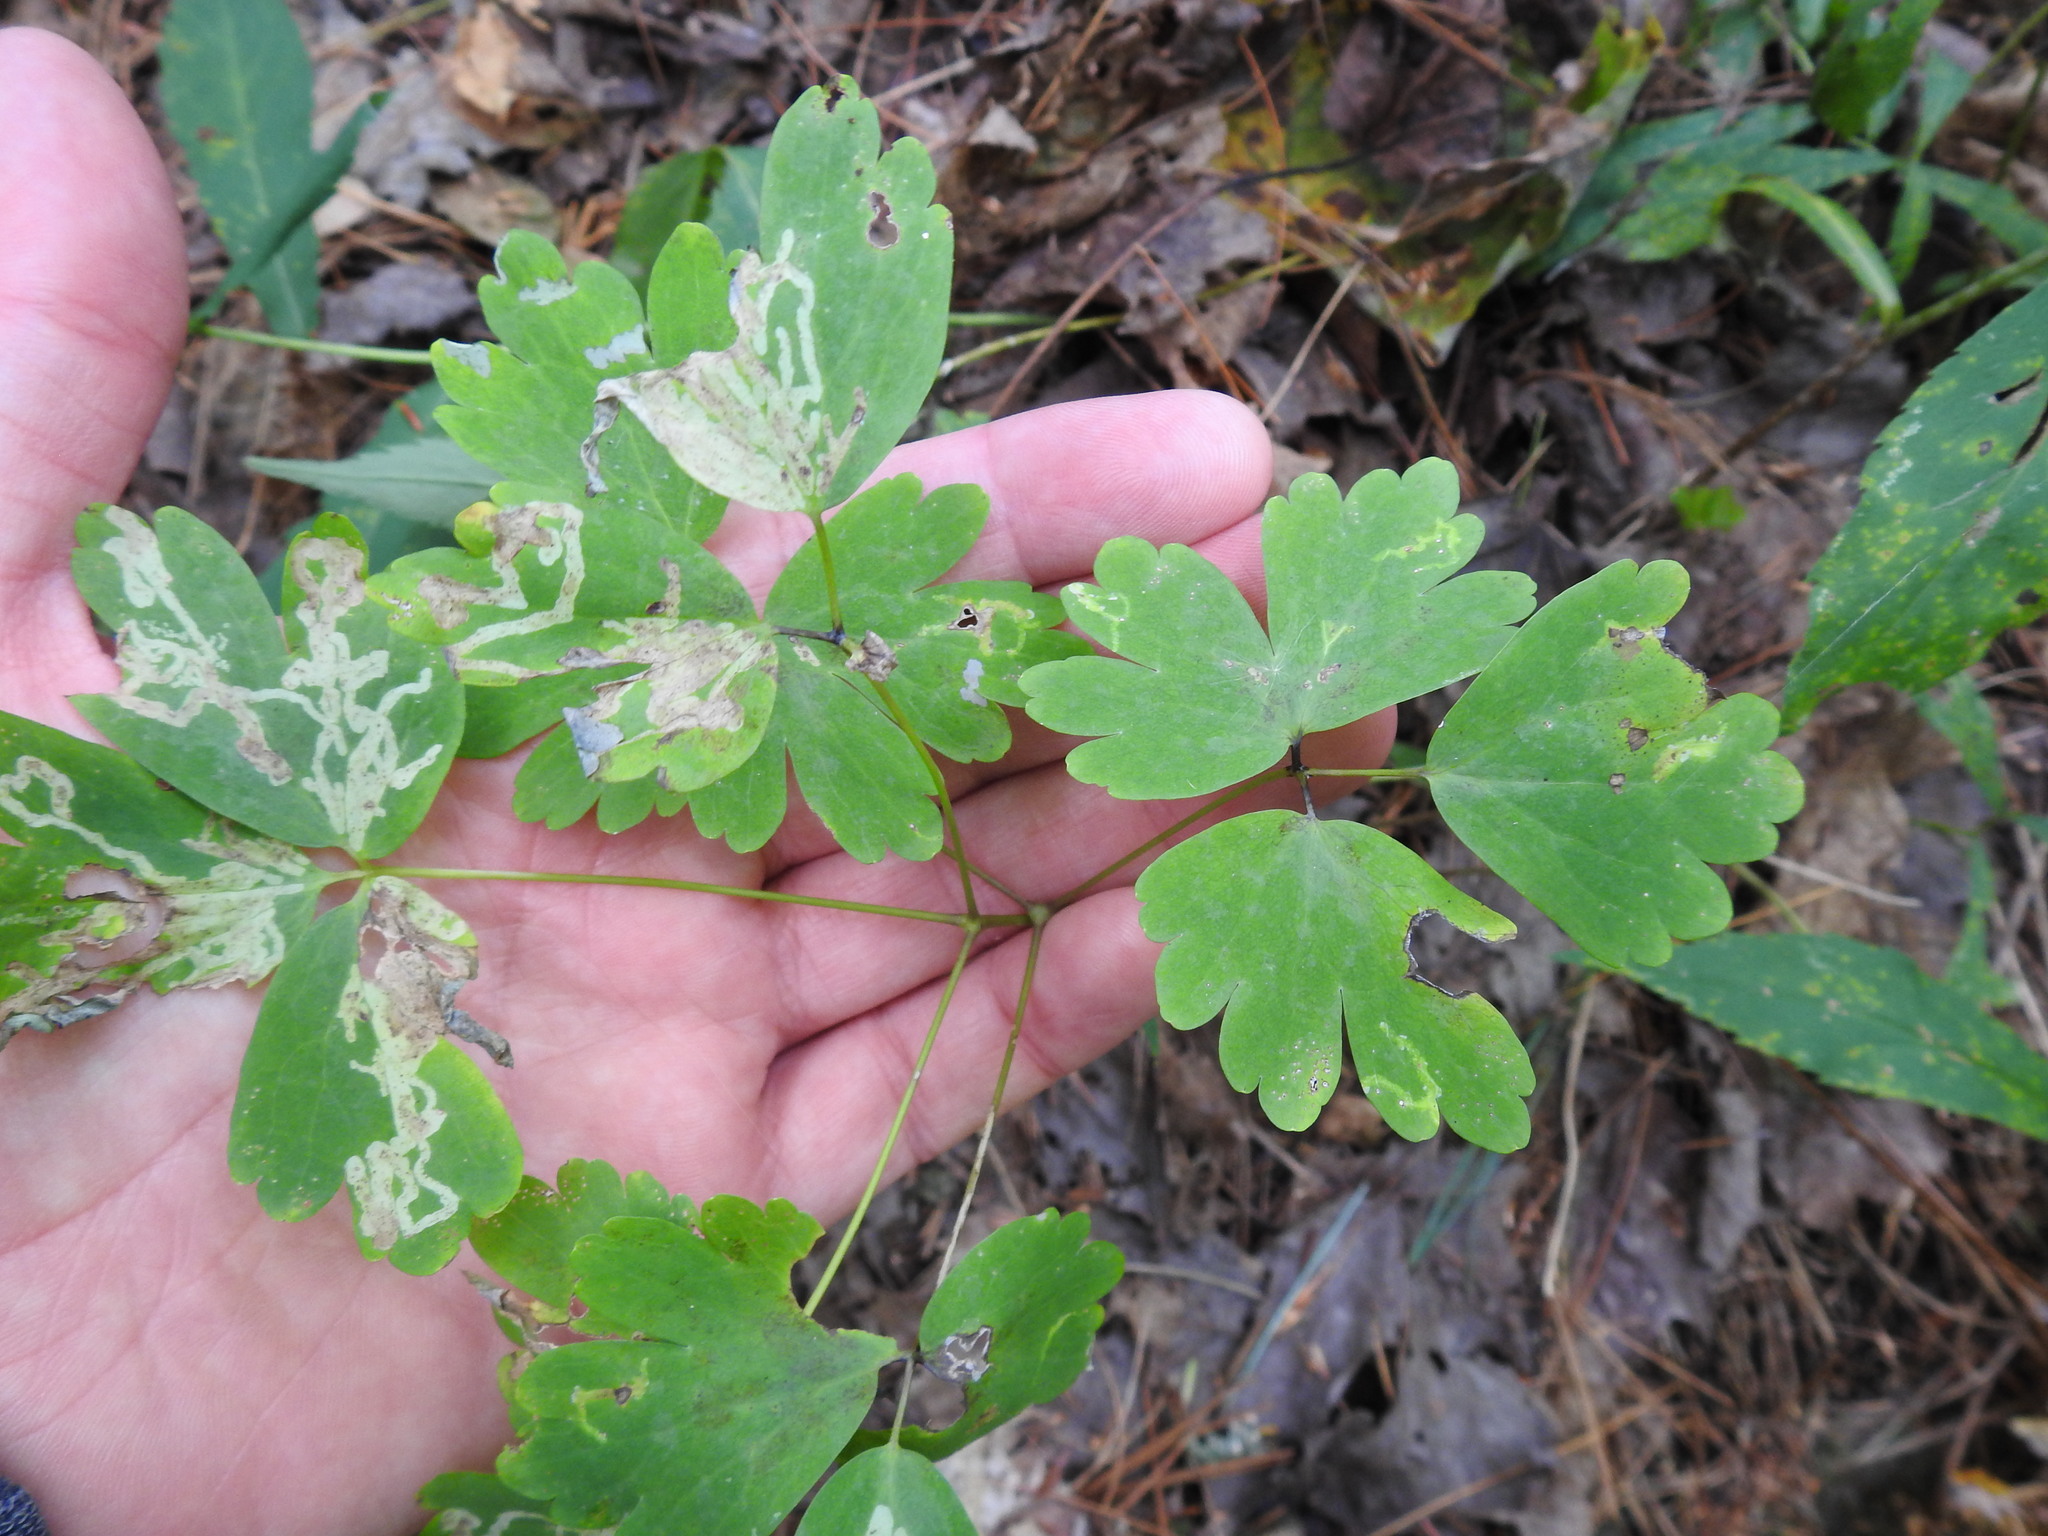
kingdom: Plantae
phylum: Tracheophyta
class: Magnoliopsida
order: Ranunculales
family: Ranunculaceae
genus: Aquilegia
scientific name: Aquilegia canadensis
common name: American columbine
